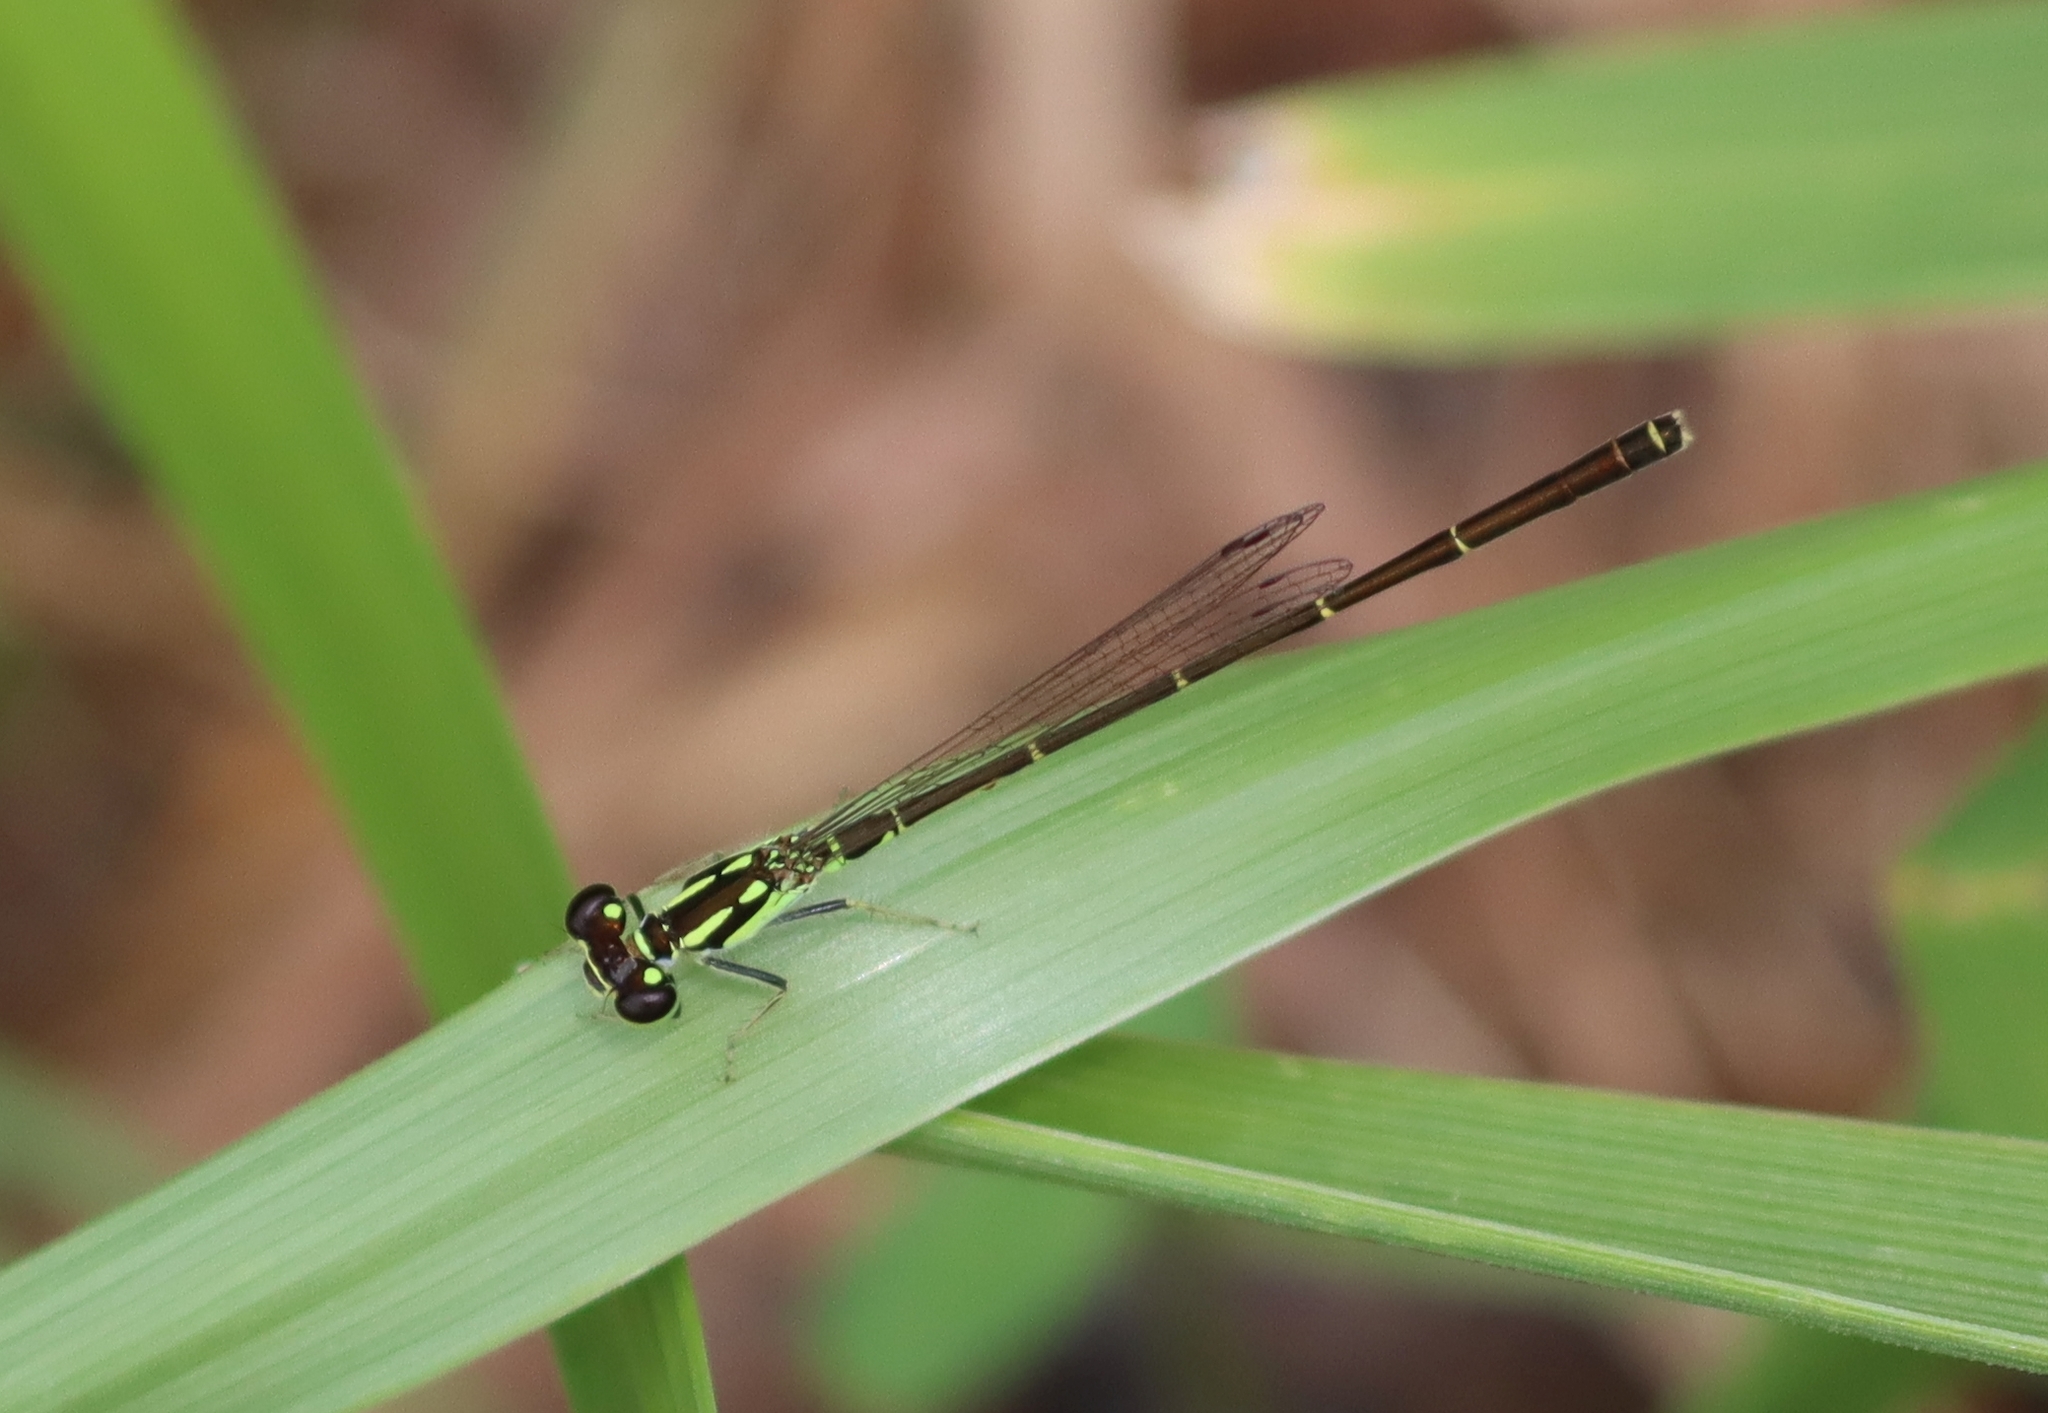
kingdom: Animalia
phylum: Arthropoda
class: Insecta
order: Odonata
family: Coenagrionidae
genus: Ischnura
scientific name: Ischnura posita
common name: Fragile forktail
